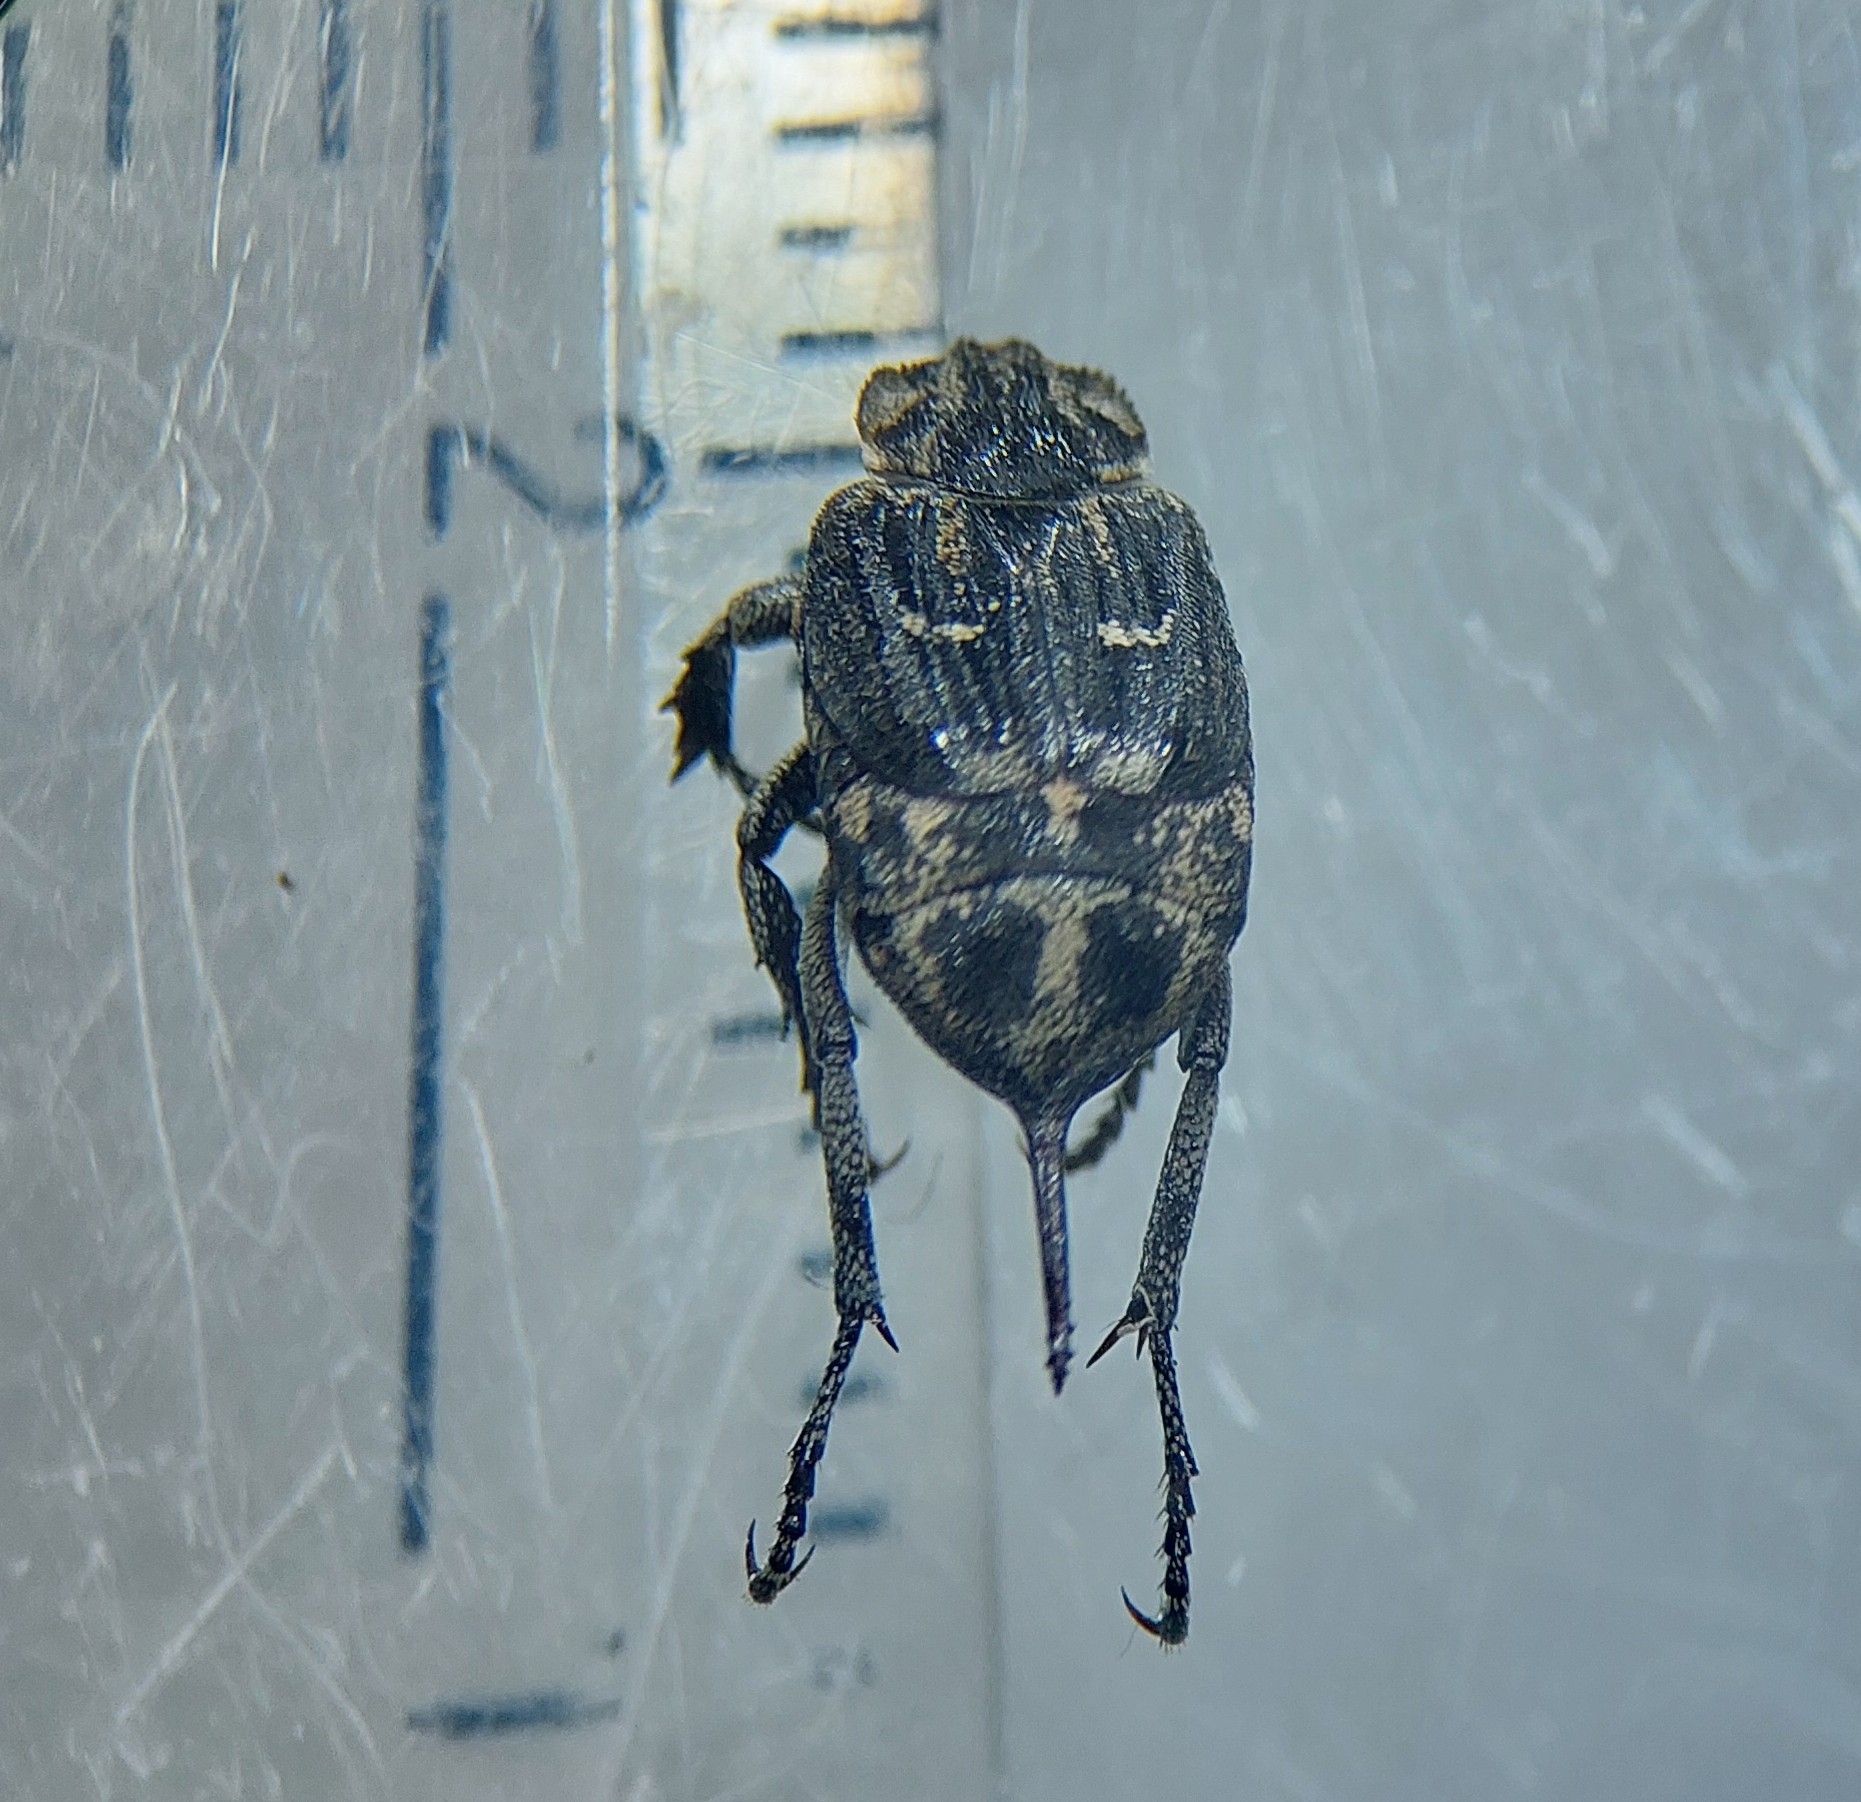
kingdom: Animalia
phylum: Arthropoda
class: Insecta
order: Coleoptera
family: Scarabaeidae
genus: Valgus
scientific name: Valgus hemipterus
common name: Bug flower chafer
